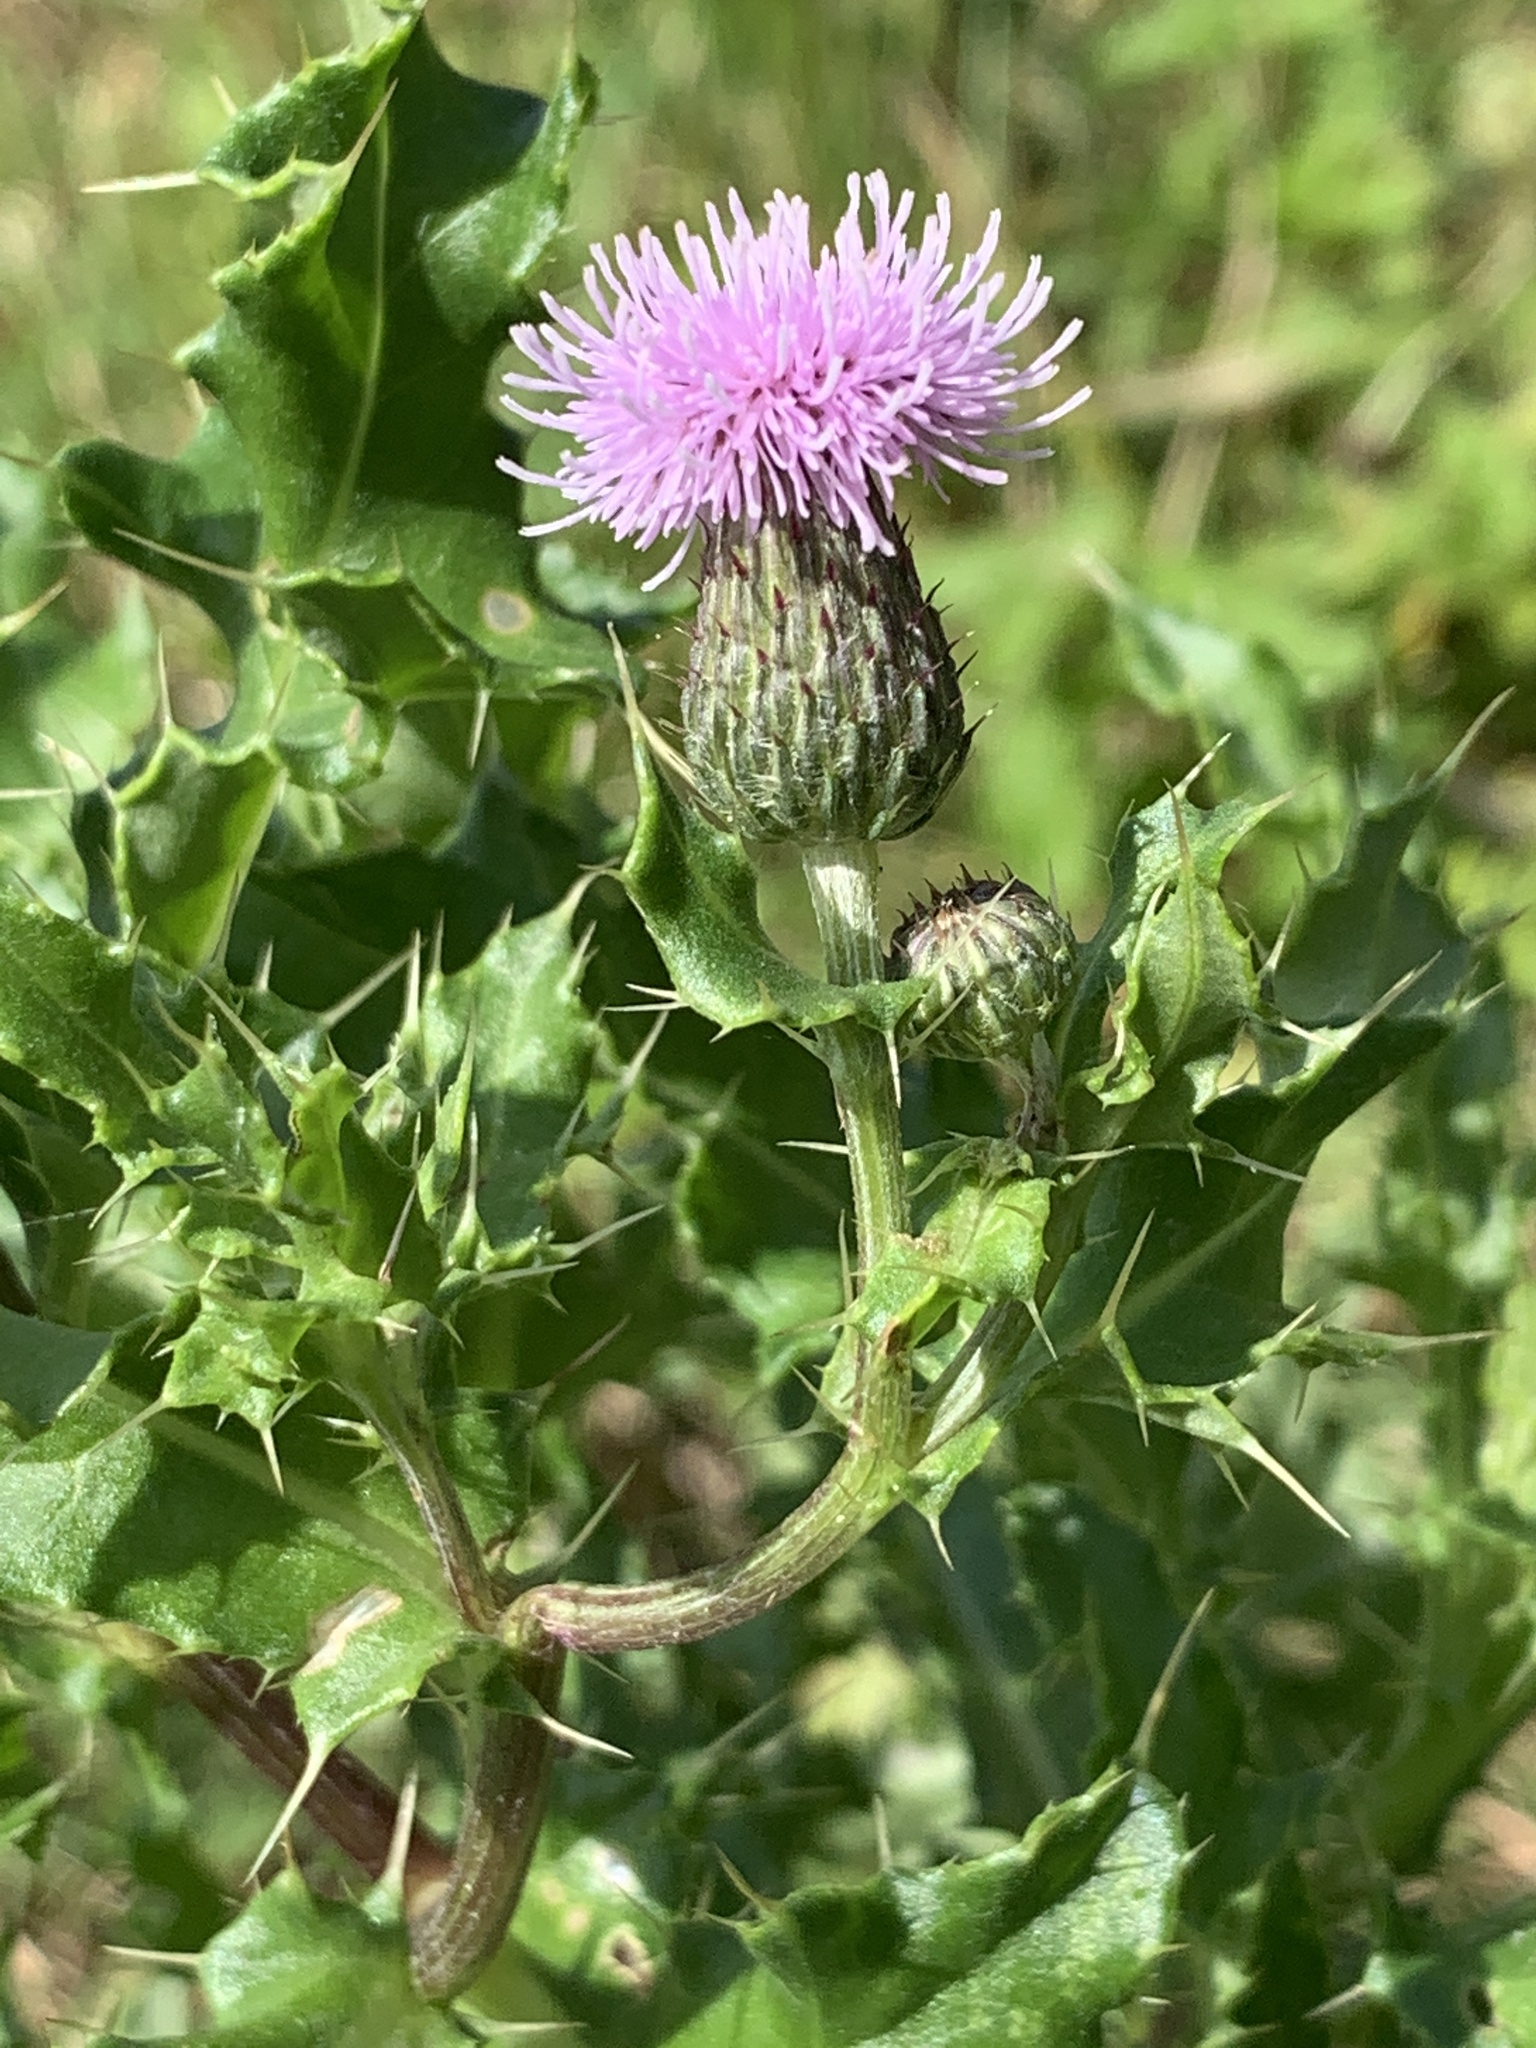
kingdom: Plantae
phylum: Tracheophyta
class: Magnoliopsida
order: Asterales
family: Asteraceae
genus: Cirsium
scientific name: Cirsium arvense
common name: Creeping thistle
